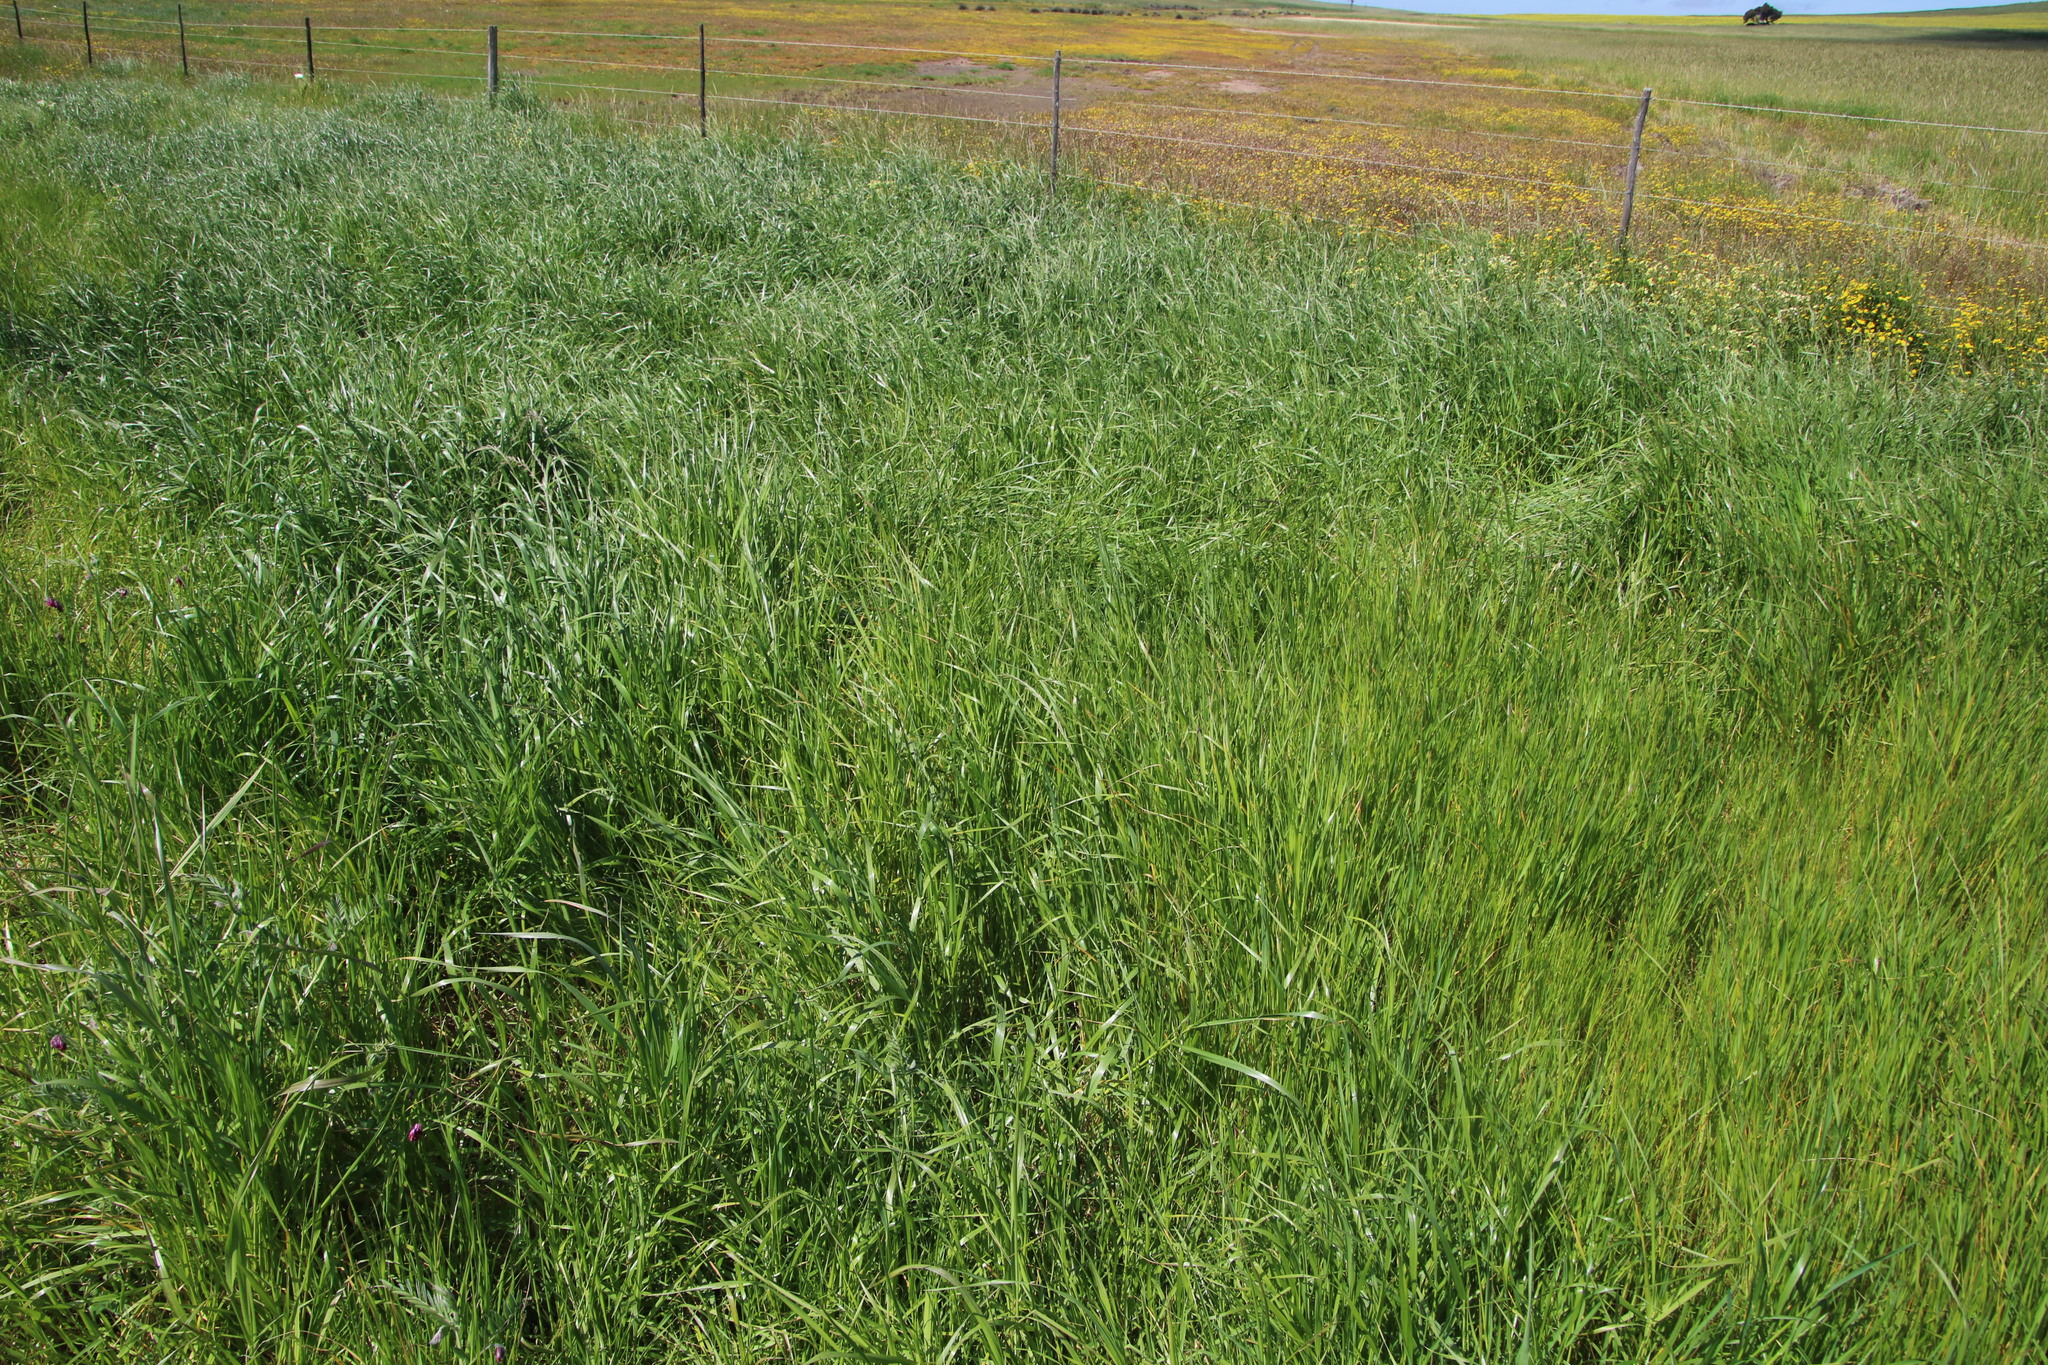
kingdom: Plantae
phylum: Tracheophyta
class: Liliopsida
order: Poales
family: Poaceae
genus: Lolium
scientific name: Lolium multiflorum
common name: Annual ryegrass
